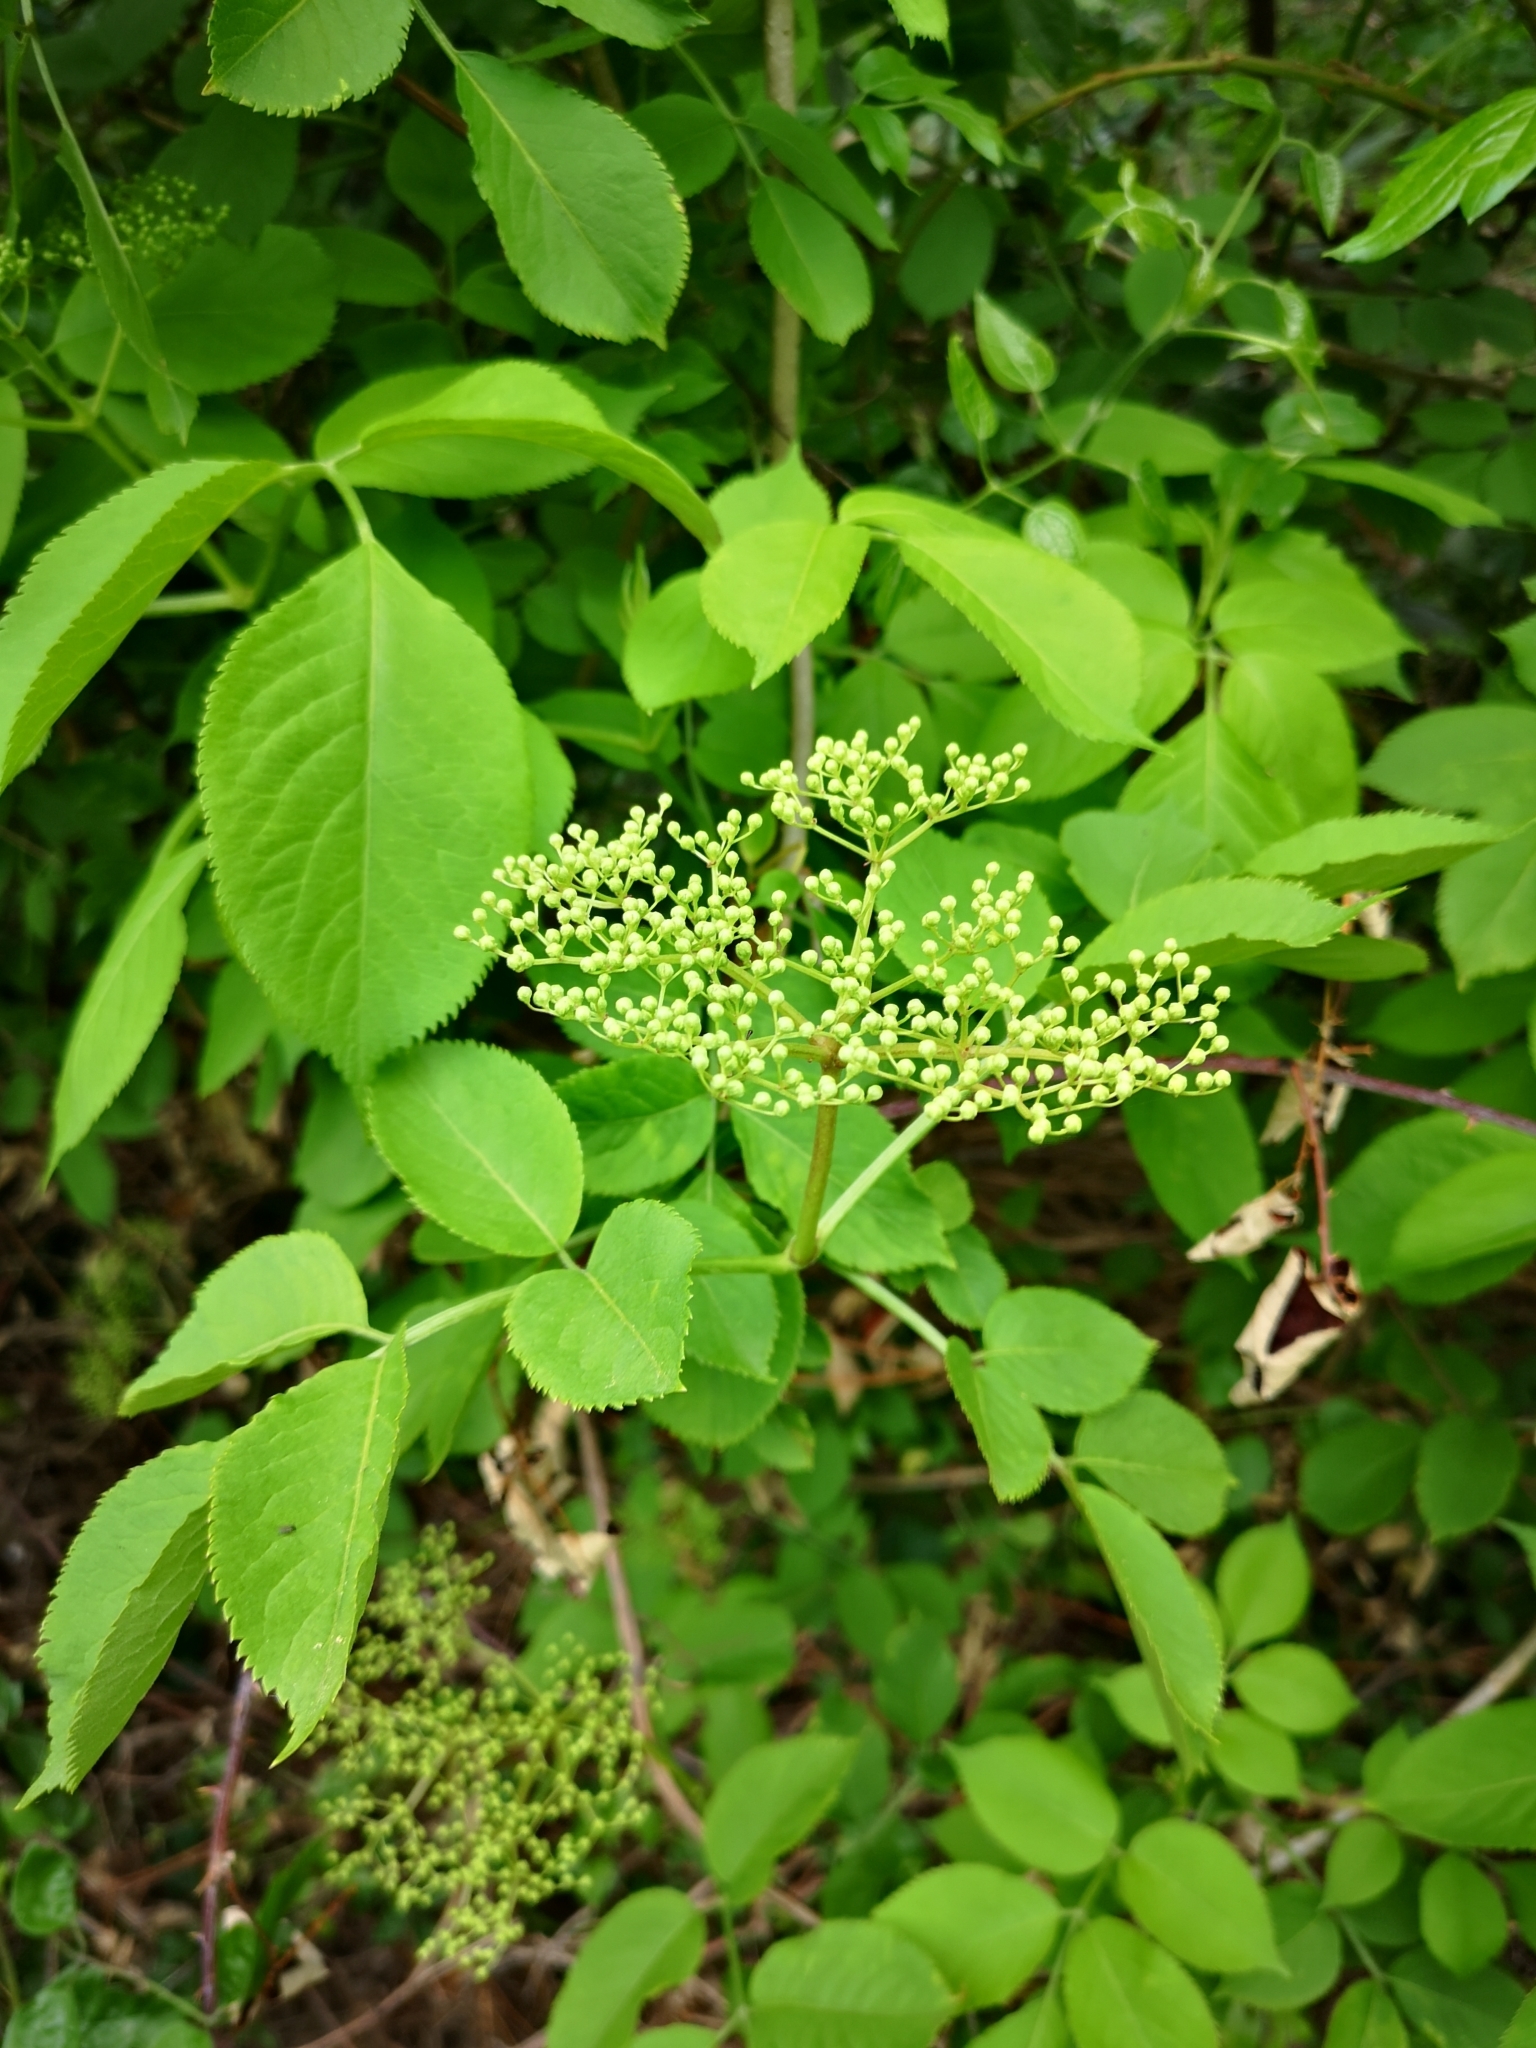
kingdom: Plantae
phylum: Tracheophyta
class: Magnoliopsida
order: Dipsacales
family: Viburnaceae
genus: Sambucus
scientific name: Sambucus nigra
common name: Elder
